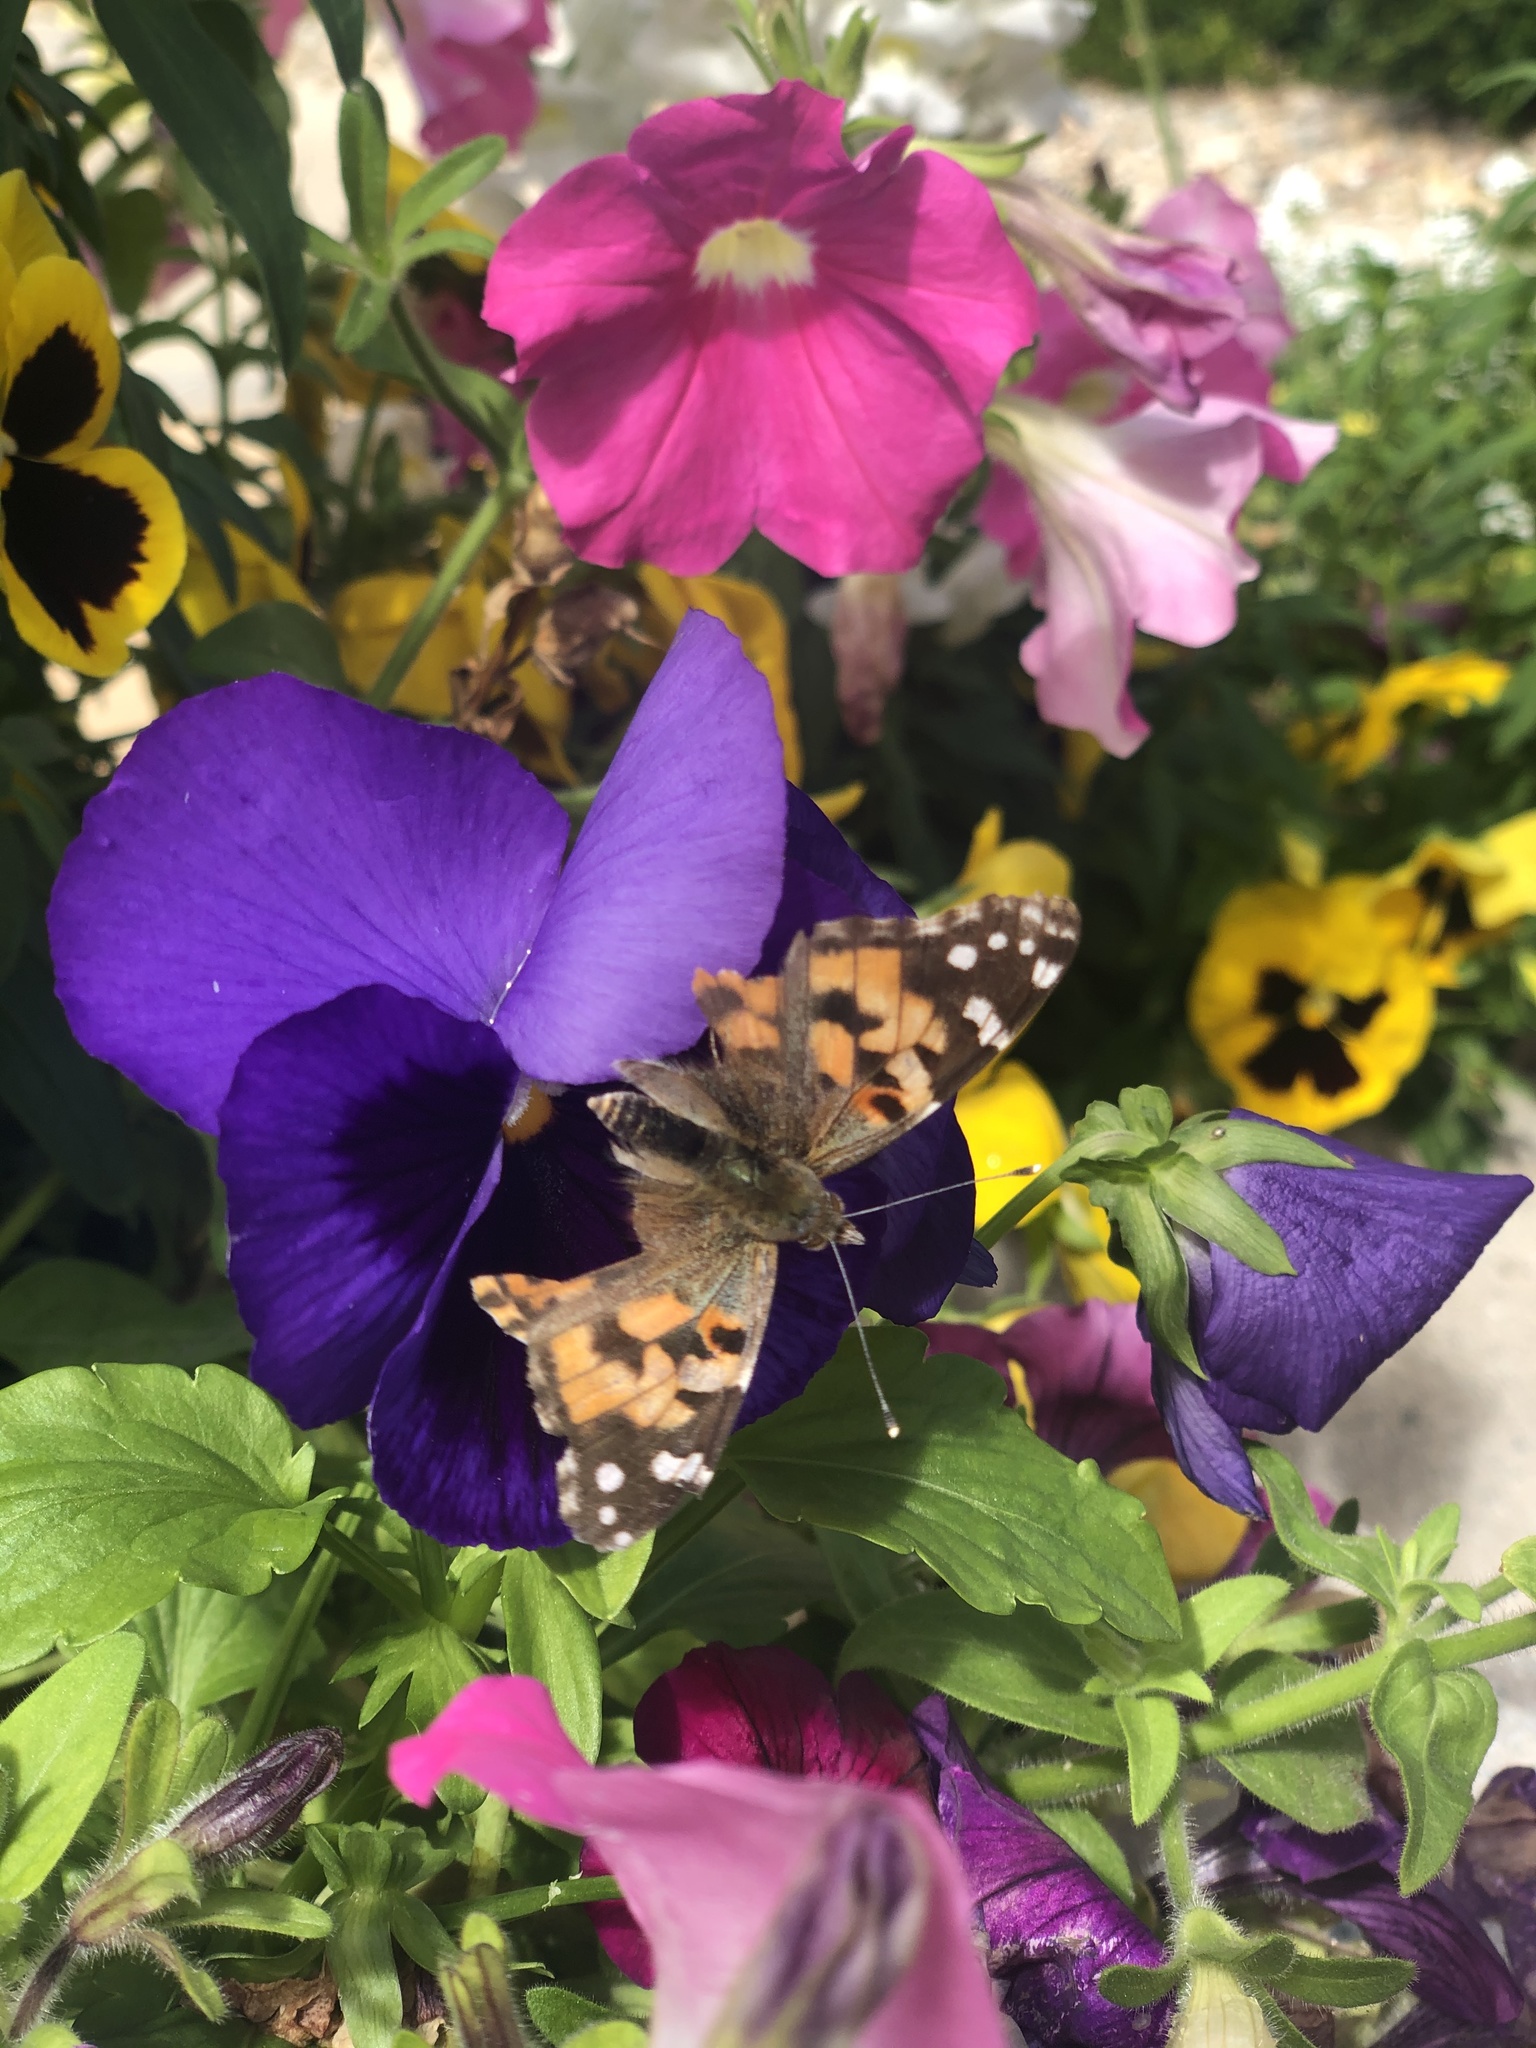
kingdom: Animalia
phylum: Arthropoda
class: Insecta
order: Lepidoptera
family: Nymphalidae
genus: Vanessa
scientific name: Vanessa cardui
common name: Painted lady
